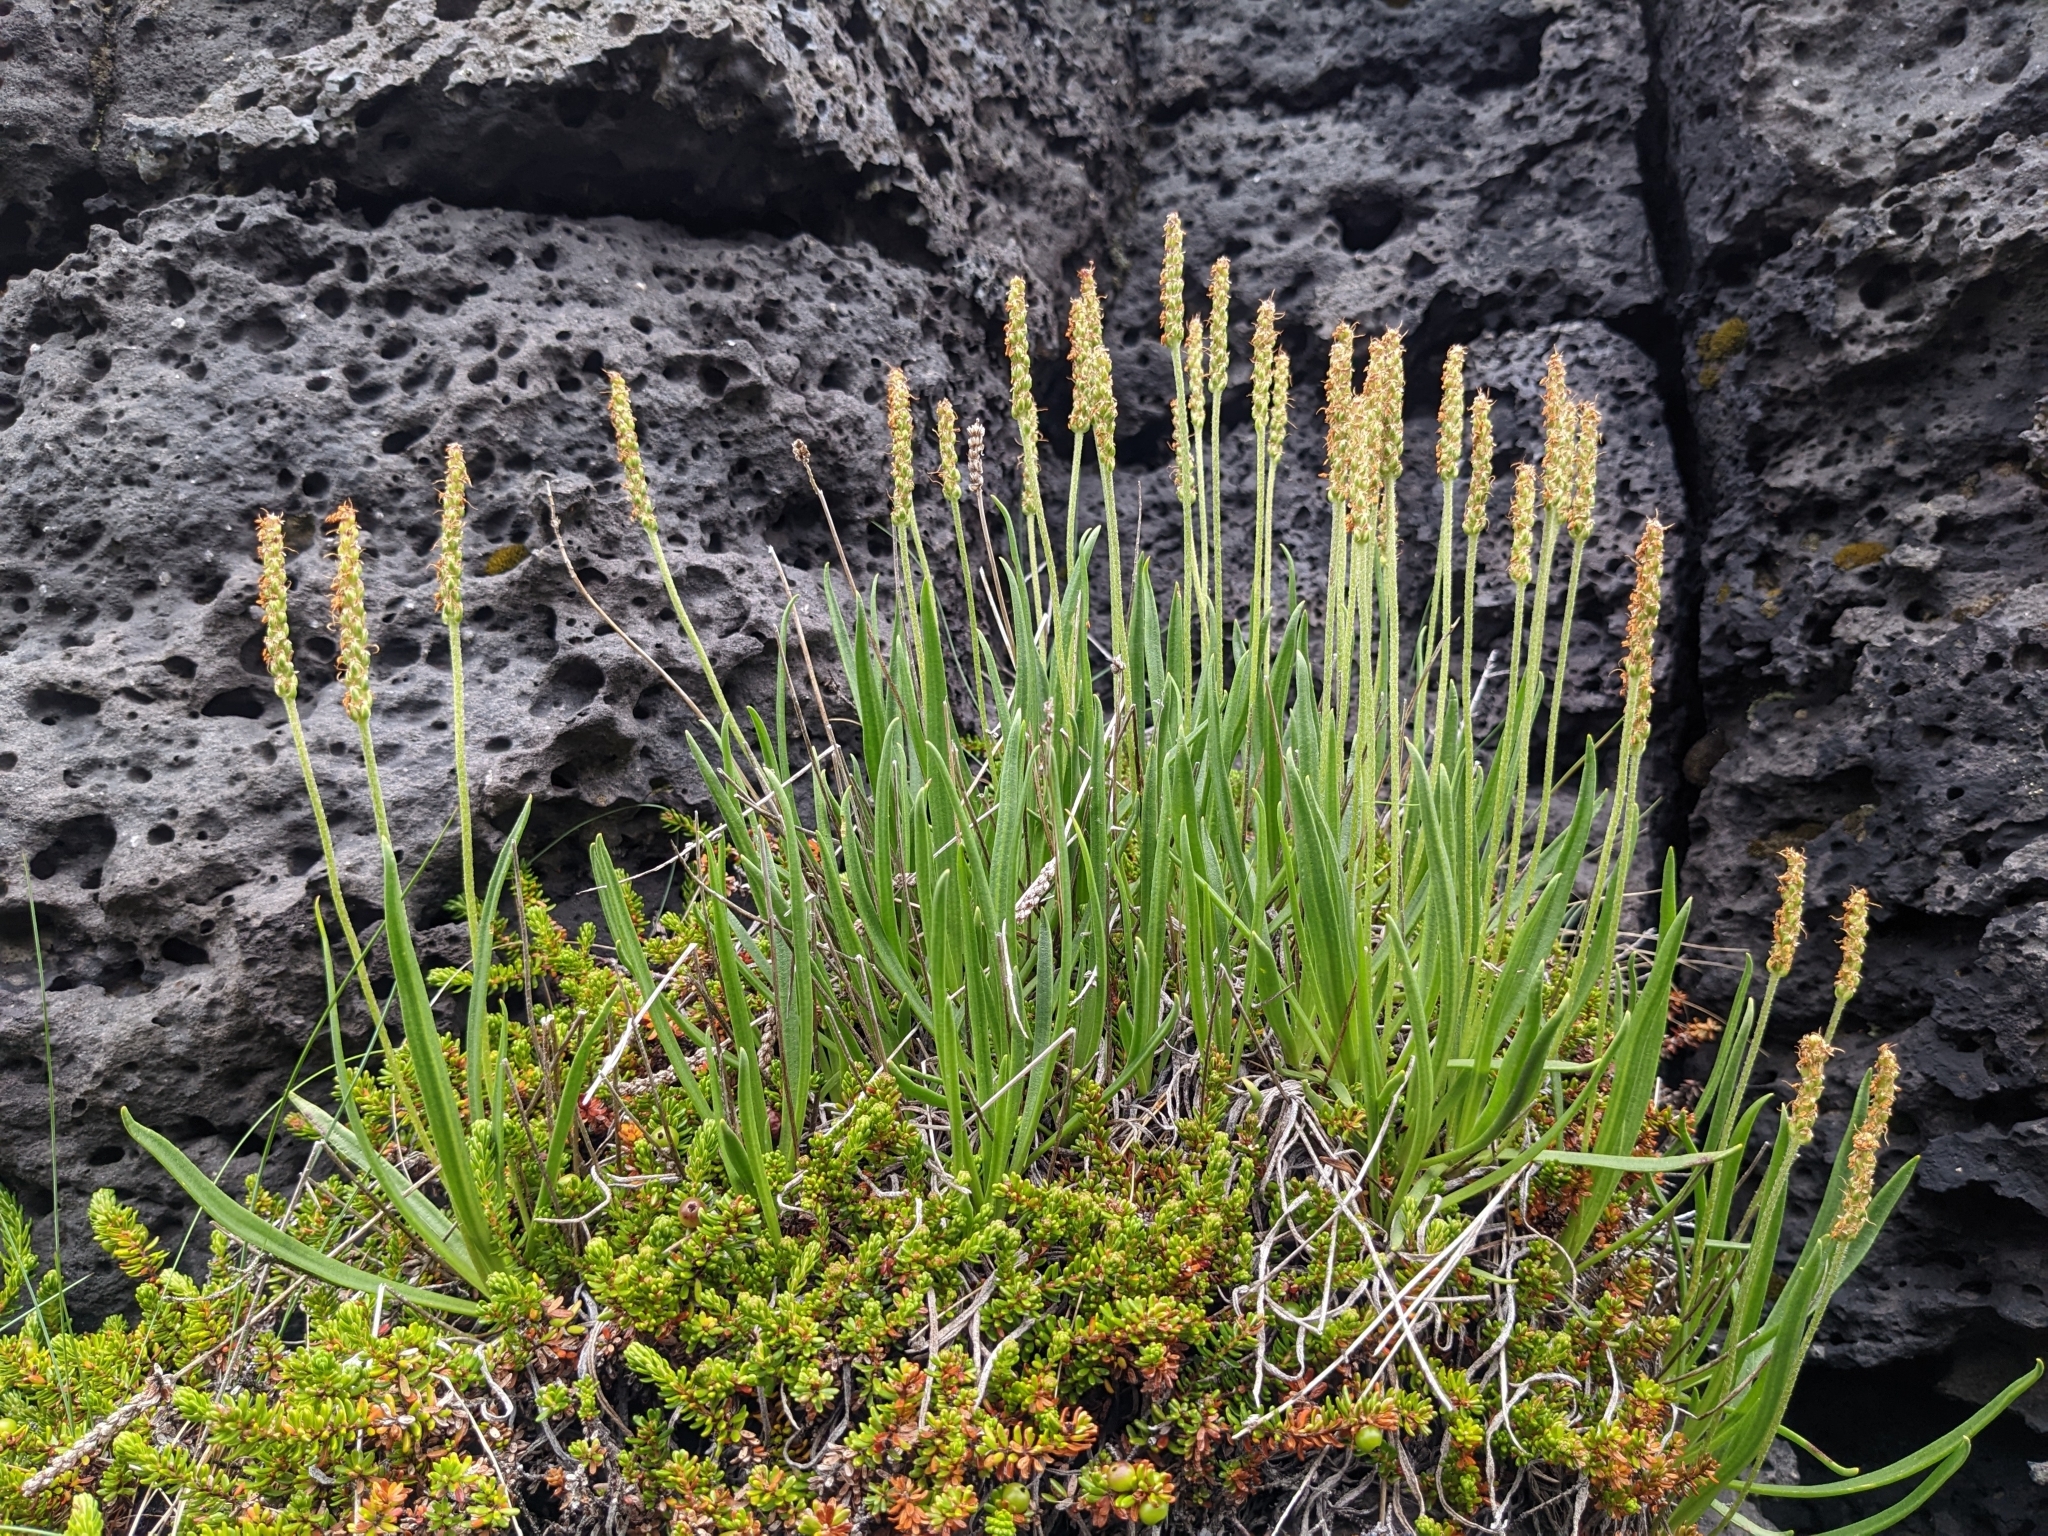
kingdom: Plantae
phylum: Tracheophyta
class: Magnoliopsida
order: Lamiales
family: Plantaginaceae
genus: Plantago
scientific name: Plantago maritima
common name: Sea plantain
